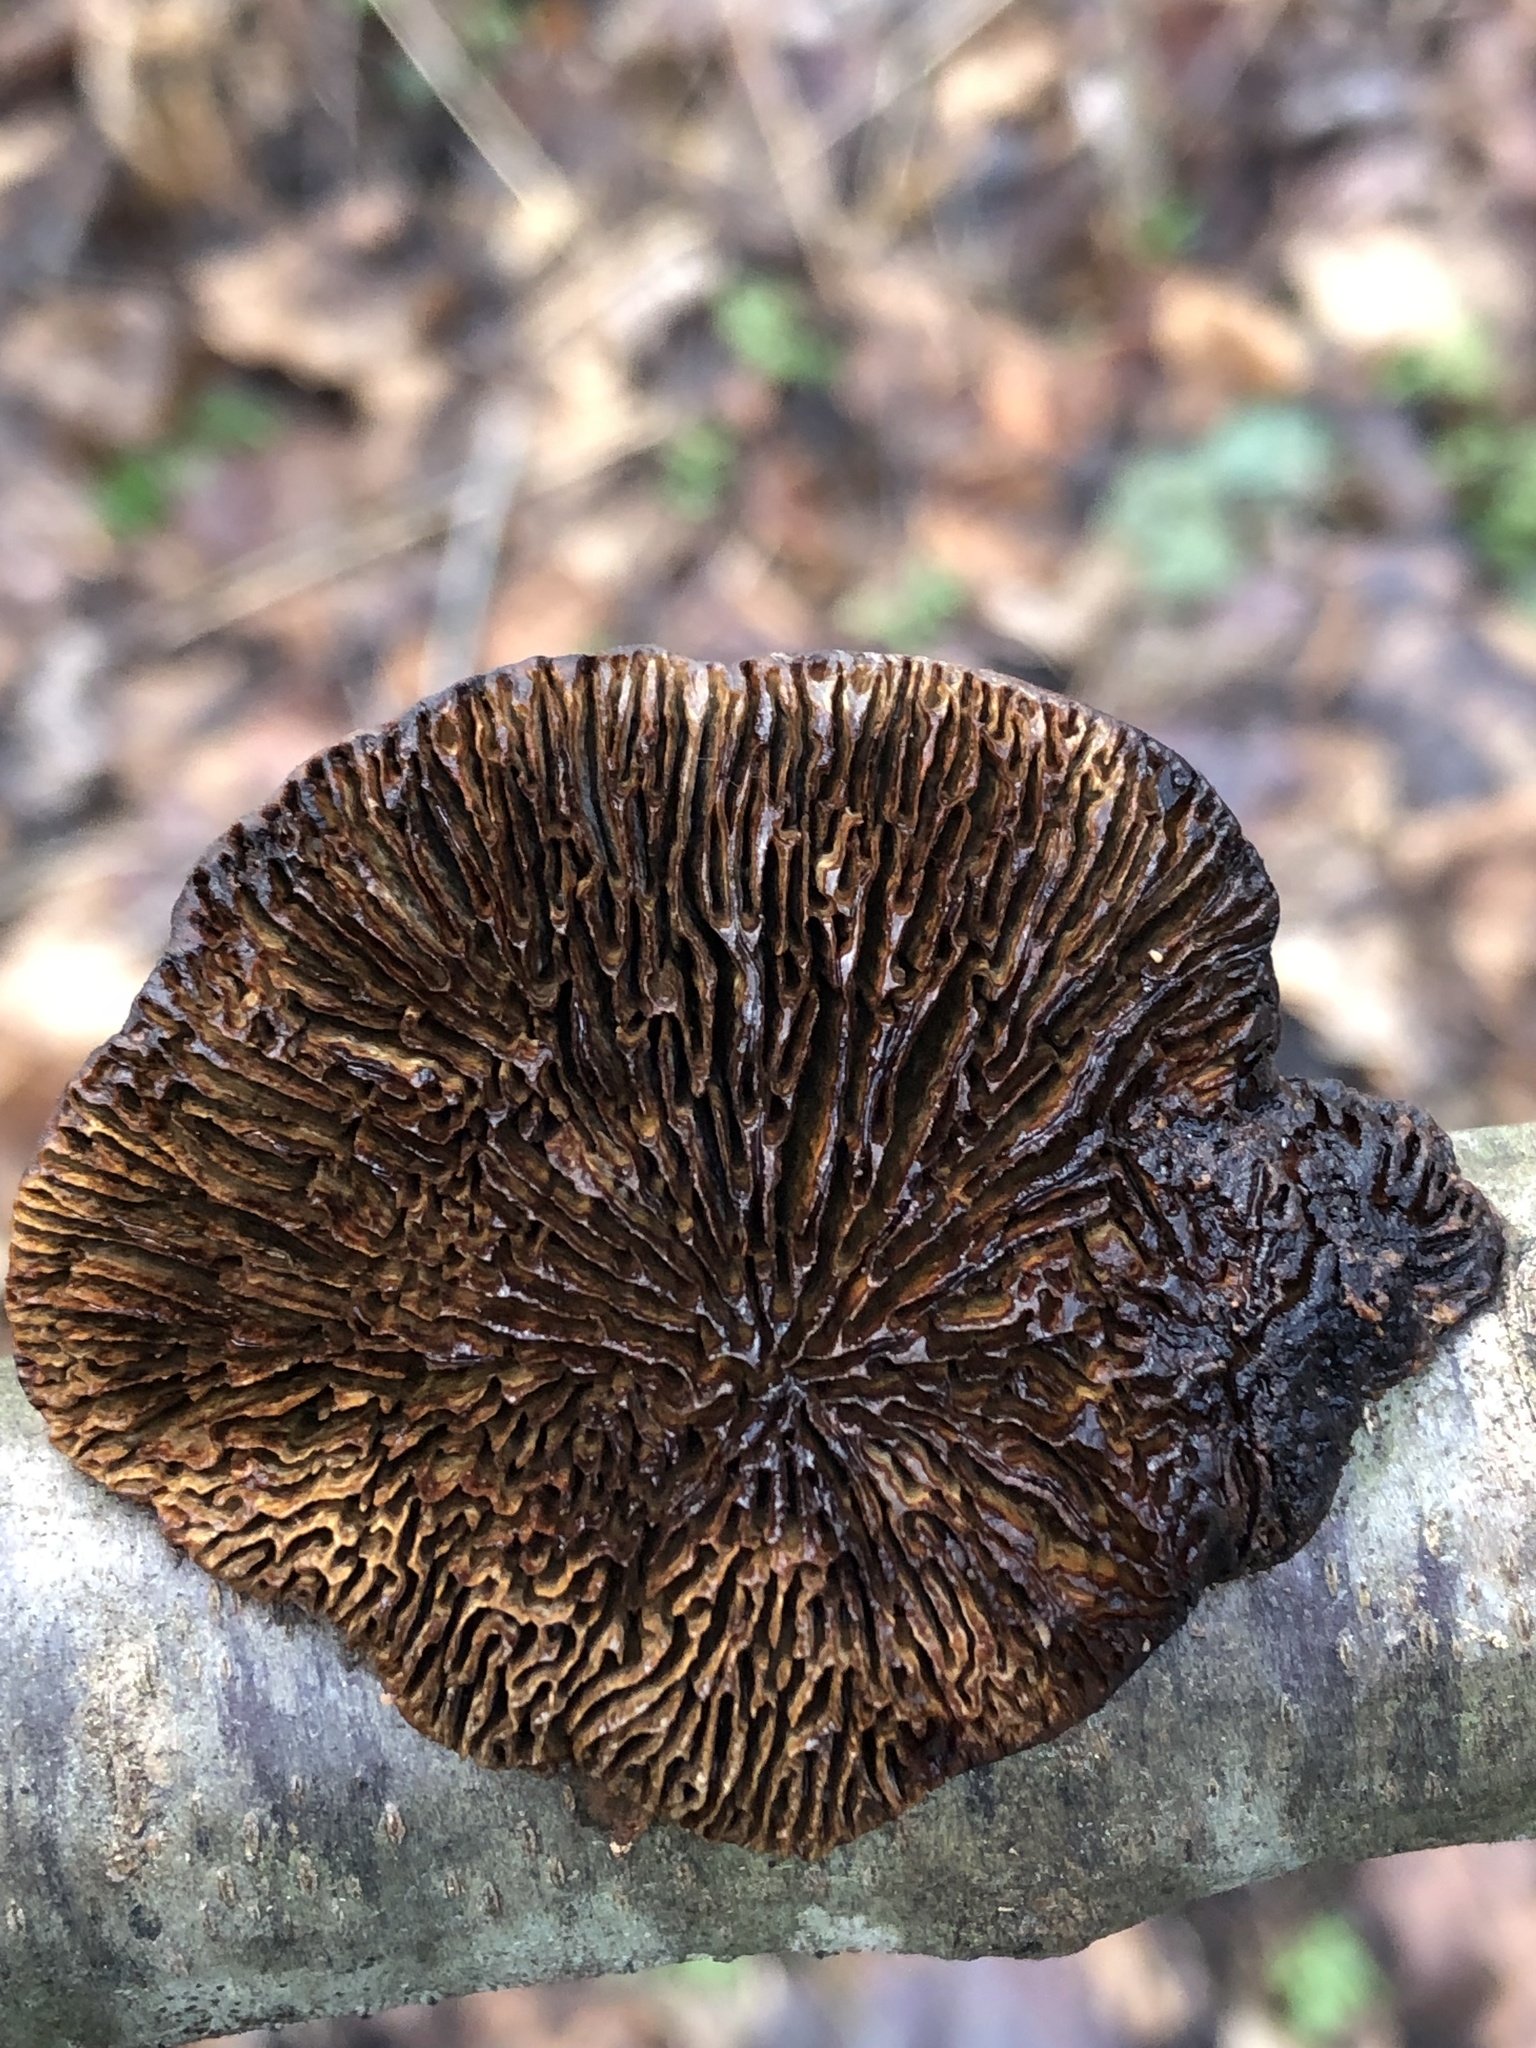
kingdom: Fungi
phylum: Basidiomycota
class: Agaricomycetes
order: Polyporales
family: Polyporaceae
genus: Daedaleopsis
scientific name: Daedaleopsis confragosa
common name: Blushing bracket
